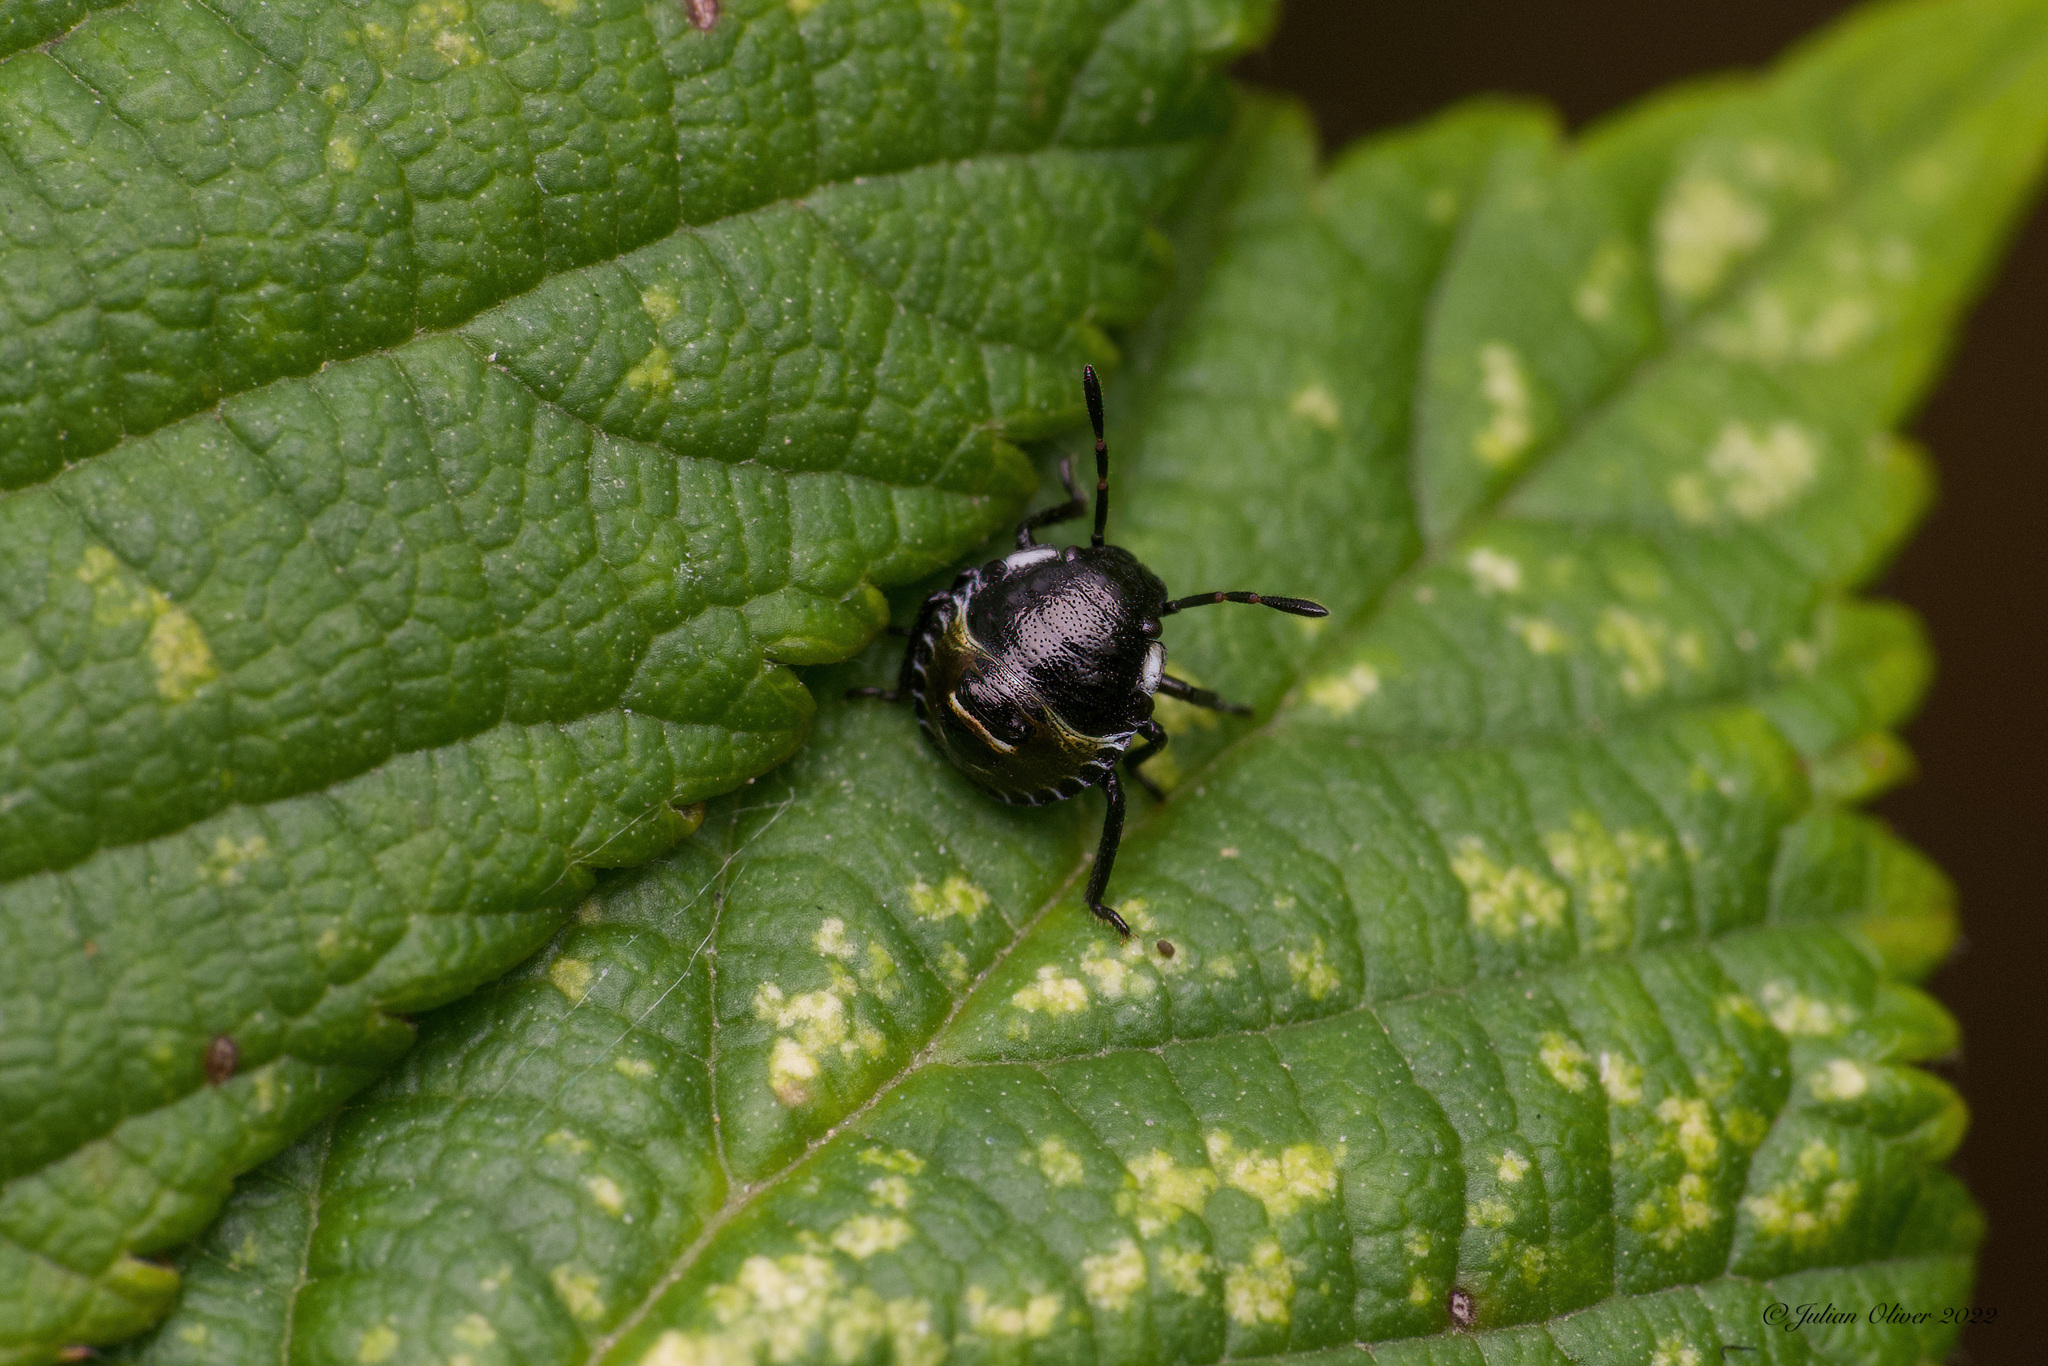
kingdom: Animalia
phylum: Arthropoda
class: Insecta
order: Hemiptera
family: Pentatomidae
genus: Palomena
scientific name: Palomena prasina
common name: Green shieldbug
